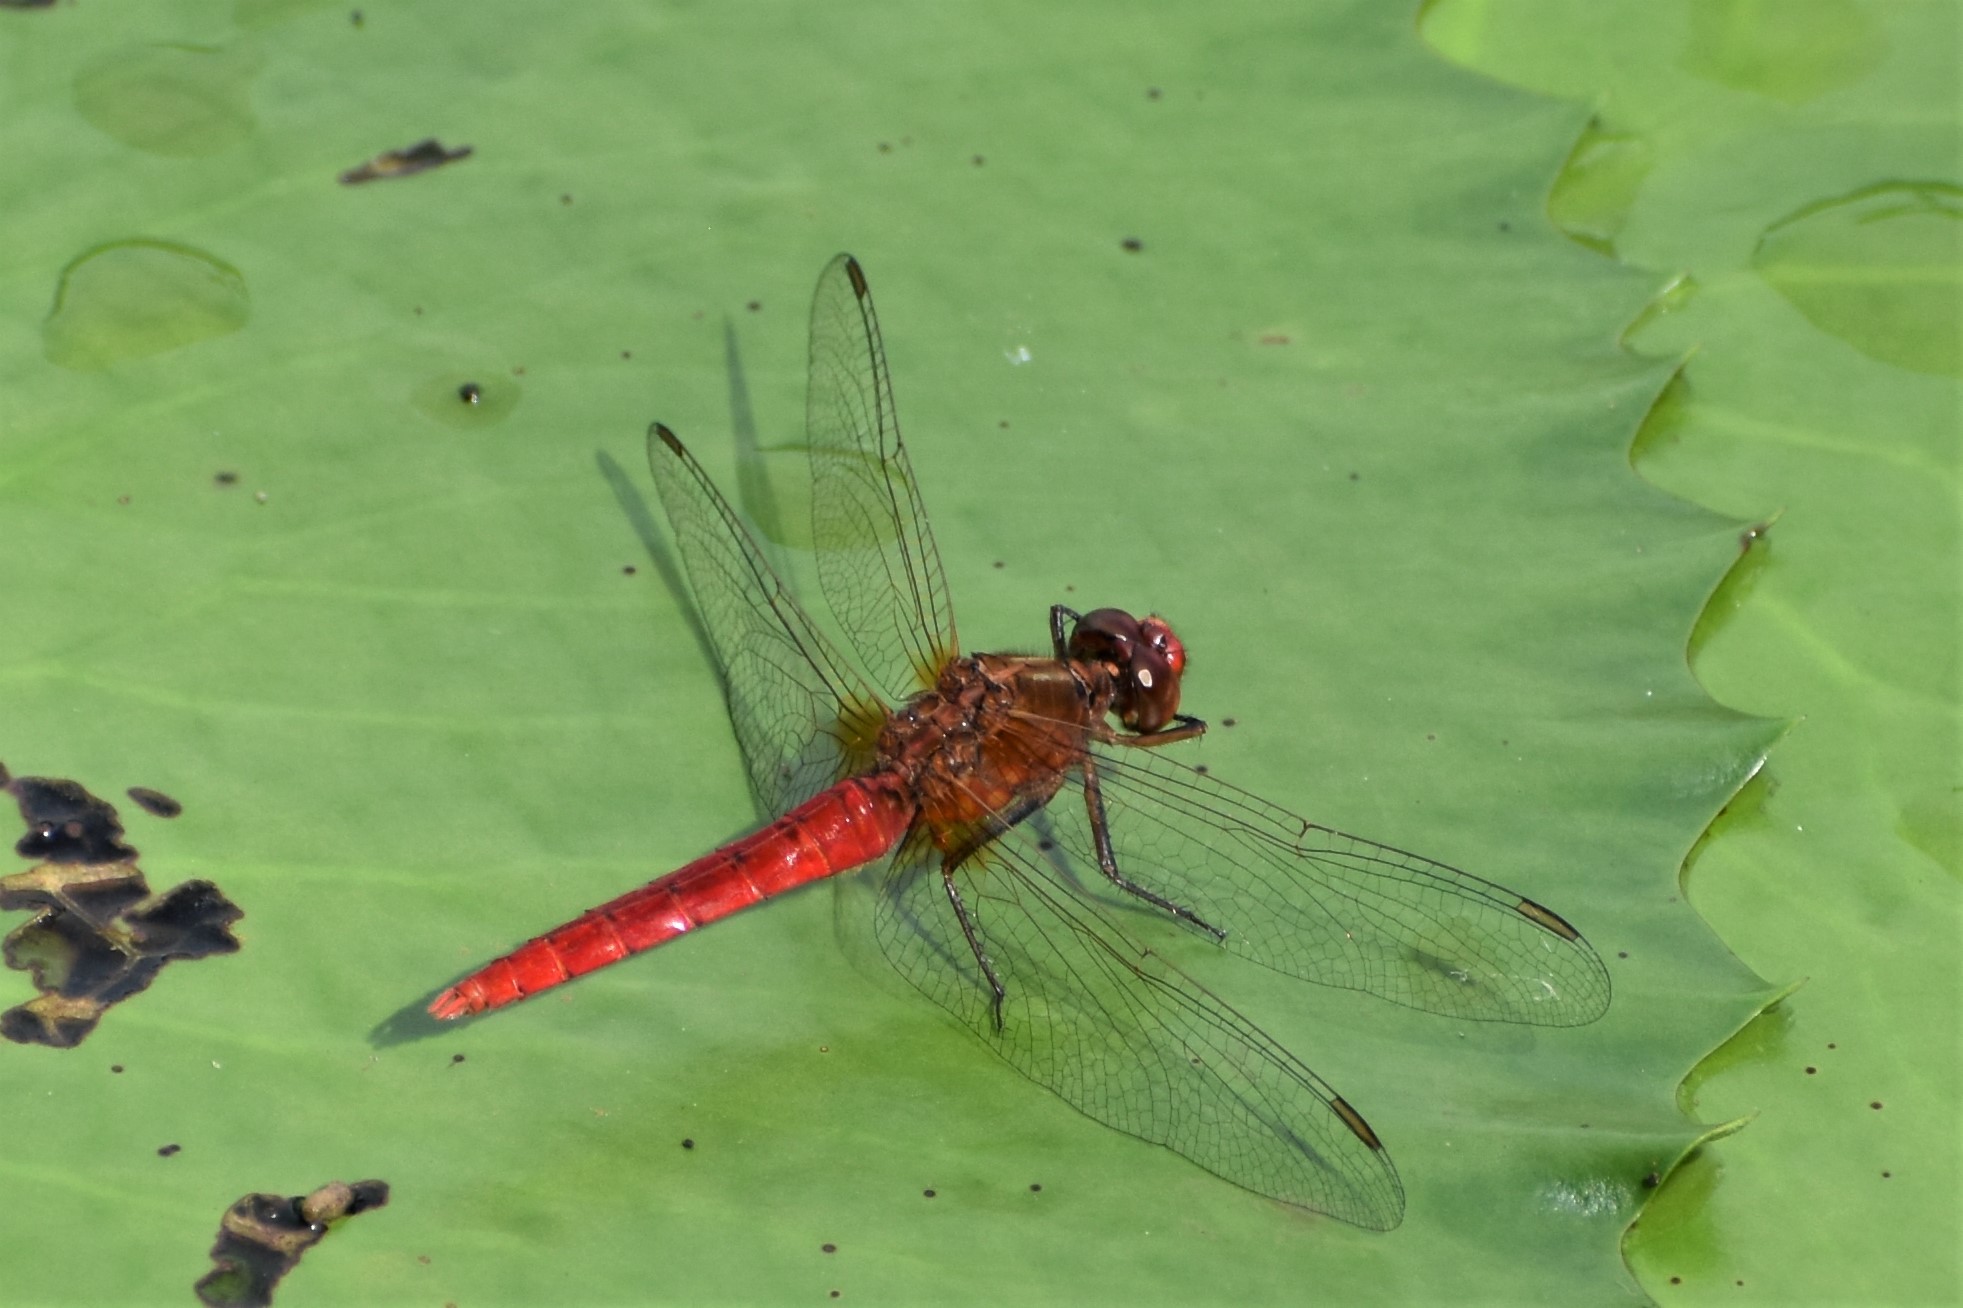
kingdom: Animalia
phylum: Arthropoda
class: Insecta
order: Odonata
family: Libellulidae
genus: Rhodothemis
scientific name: Rhodothemis lieftincki
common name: Red arrow
